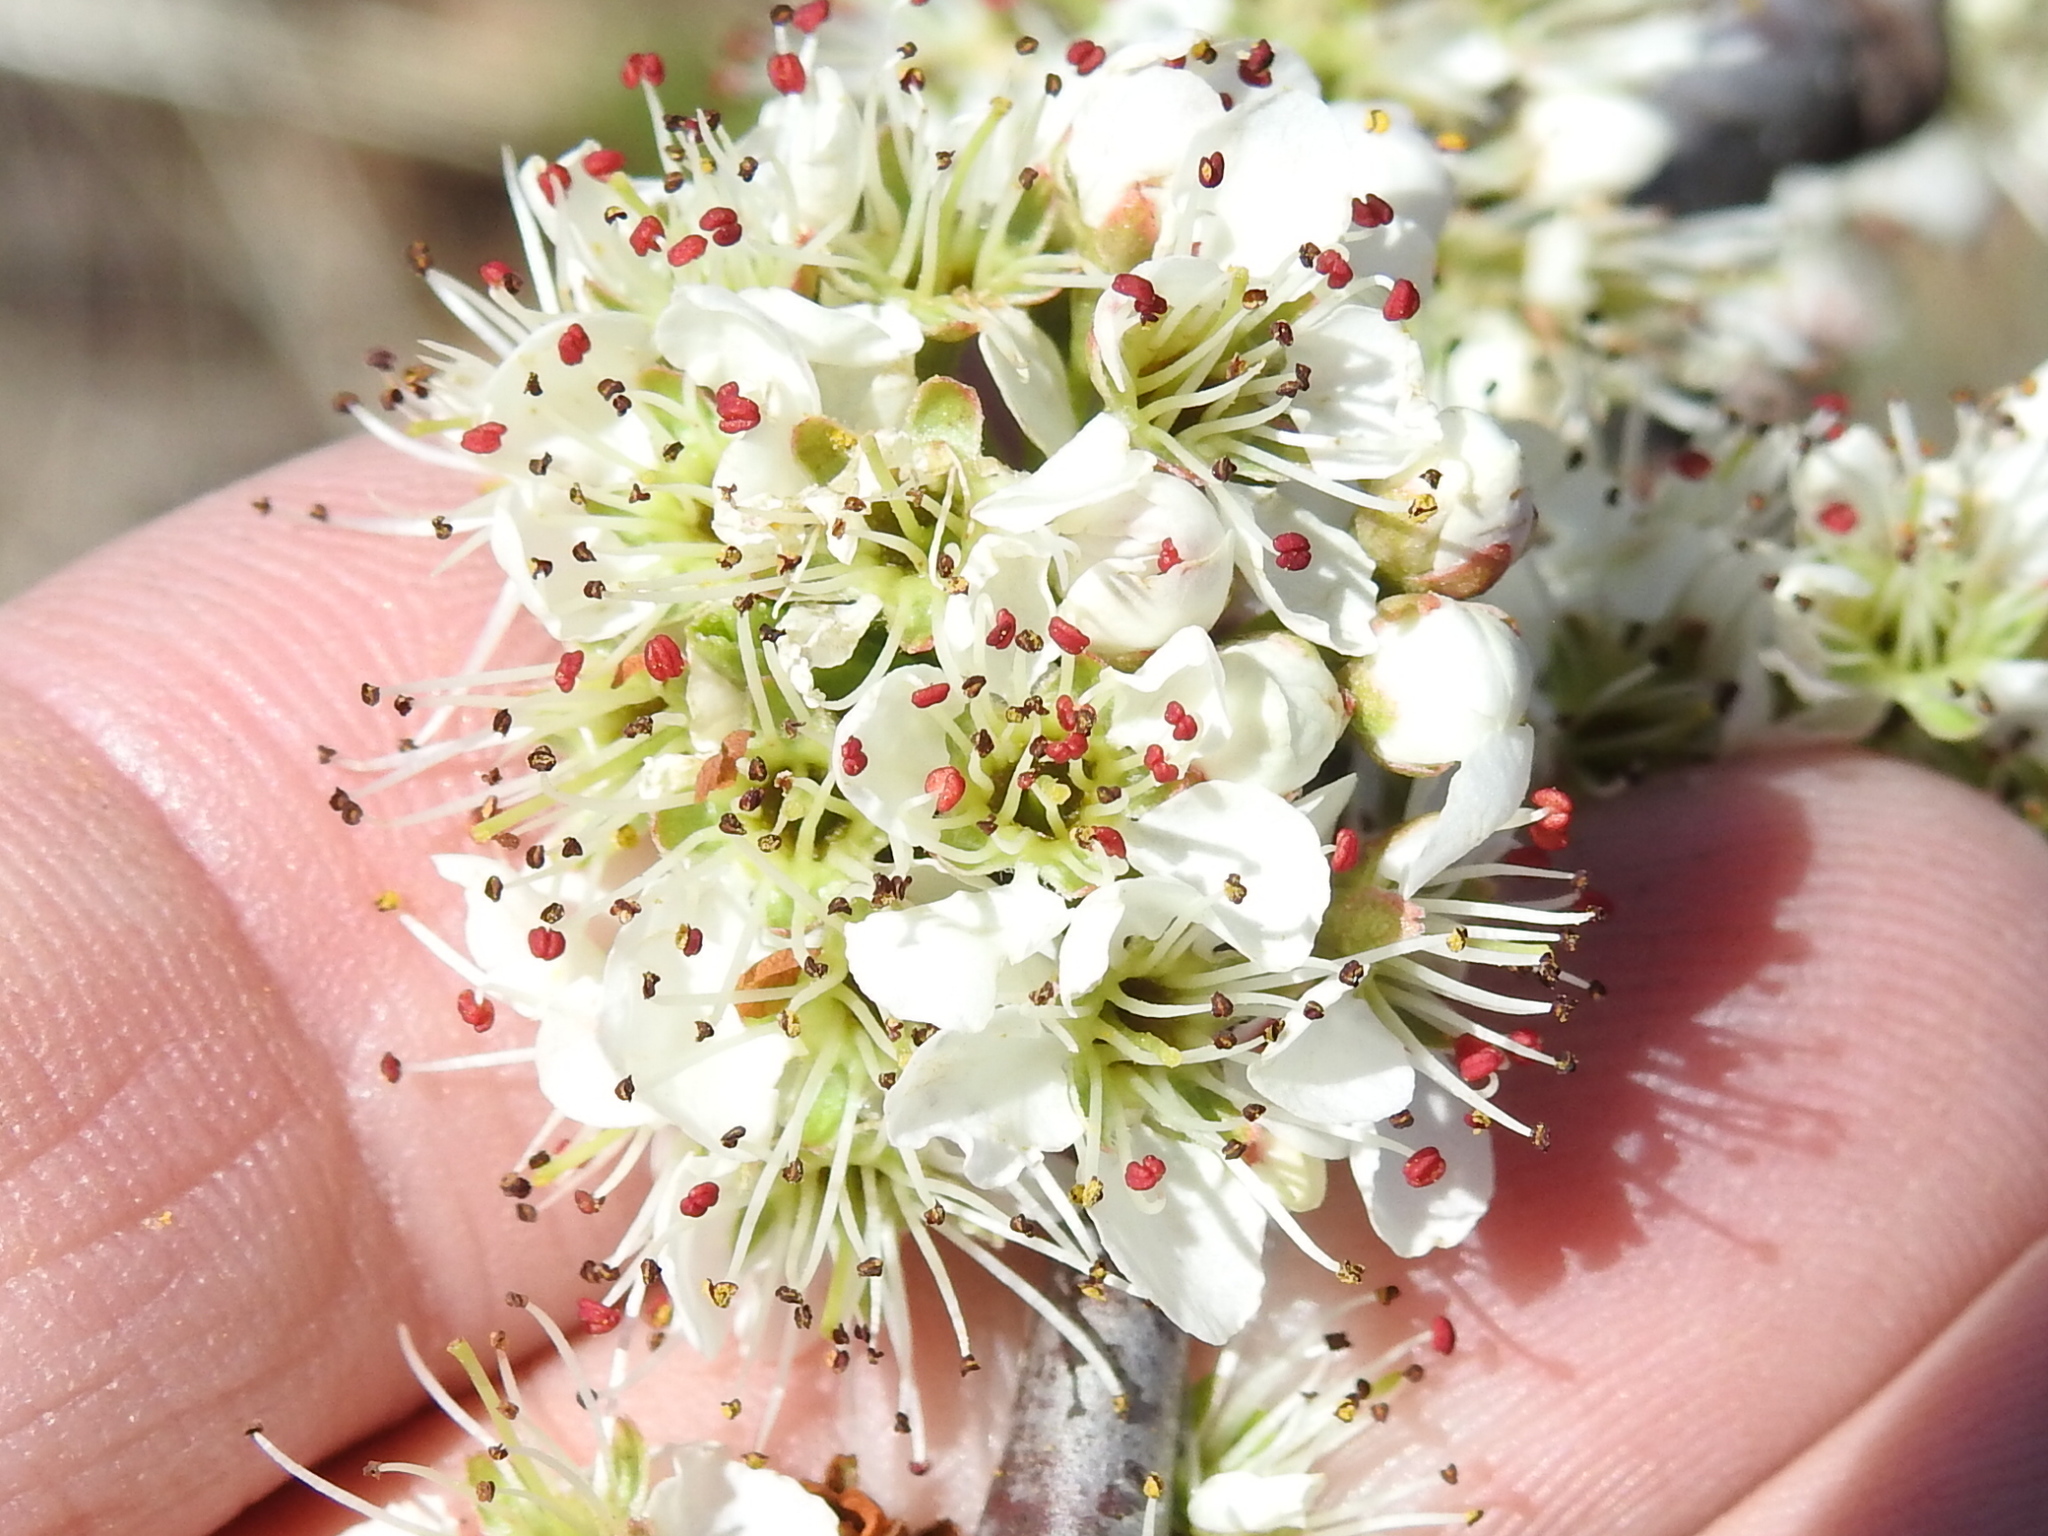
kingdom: Plantae
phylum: Tracheophyta
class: Magnoliopsida
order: Rosales
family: Rosaceae
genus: Prunus
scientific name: Prunus angustifolia
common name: Cherokee plum
